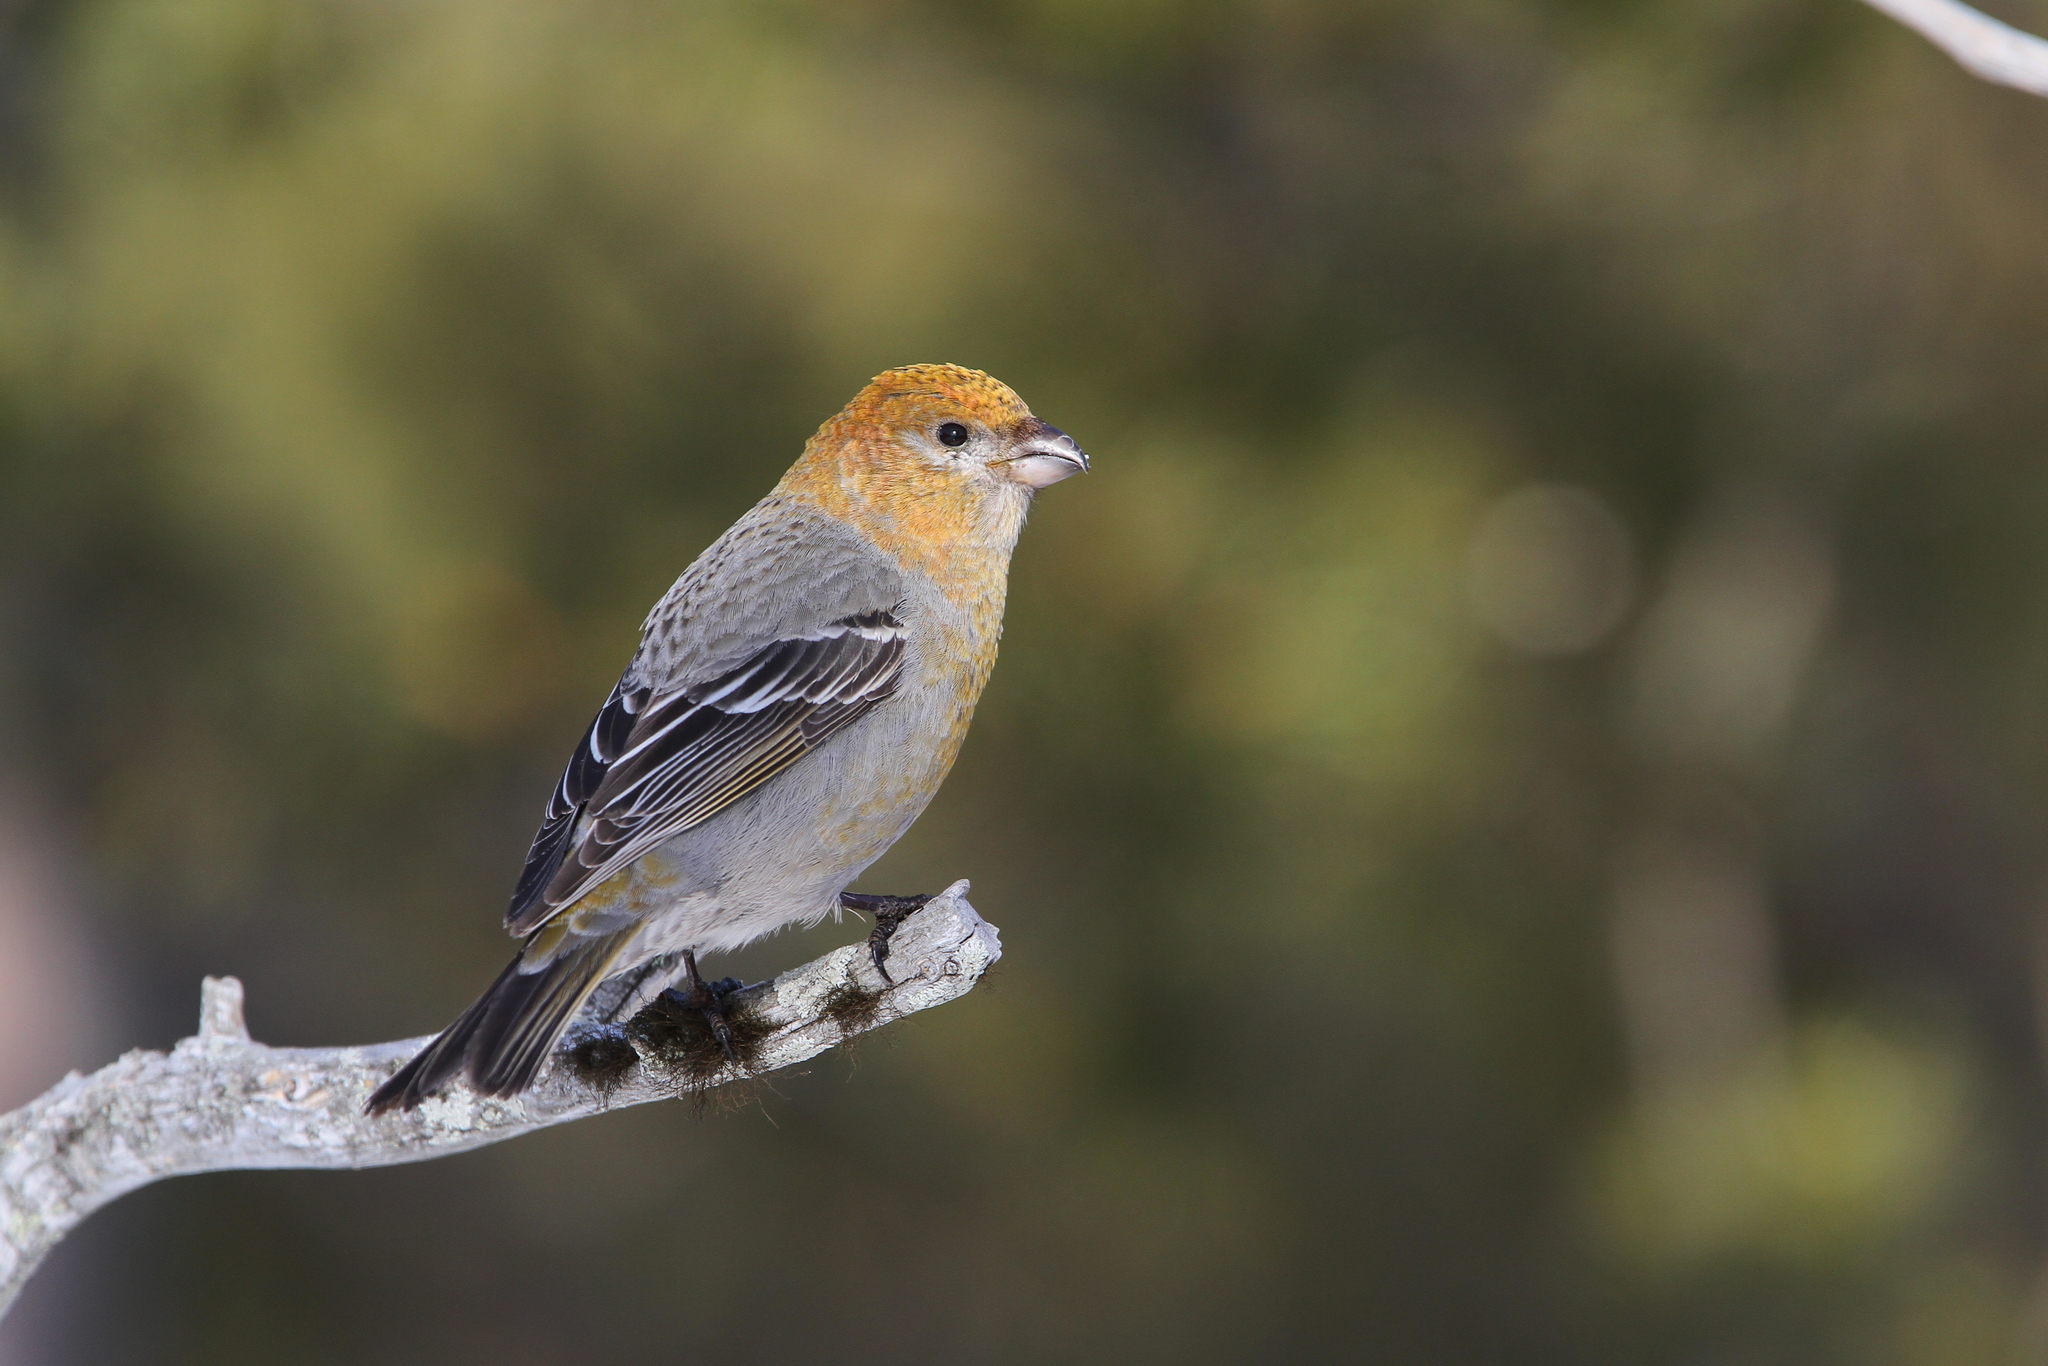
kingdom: Animalia
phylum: Chordata
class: Aves
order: Passeriformes
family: Fringillidae
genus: Pinicola
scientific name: Pinicola enucleator
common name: Pine grosbeak
